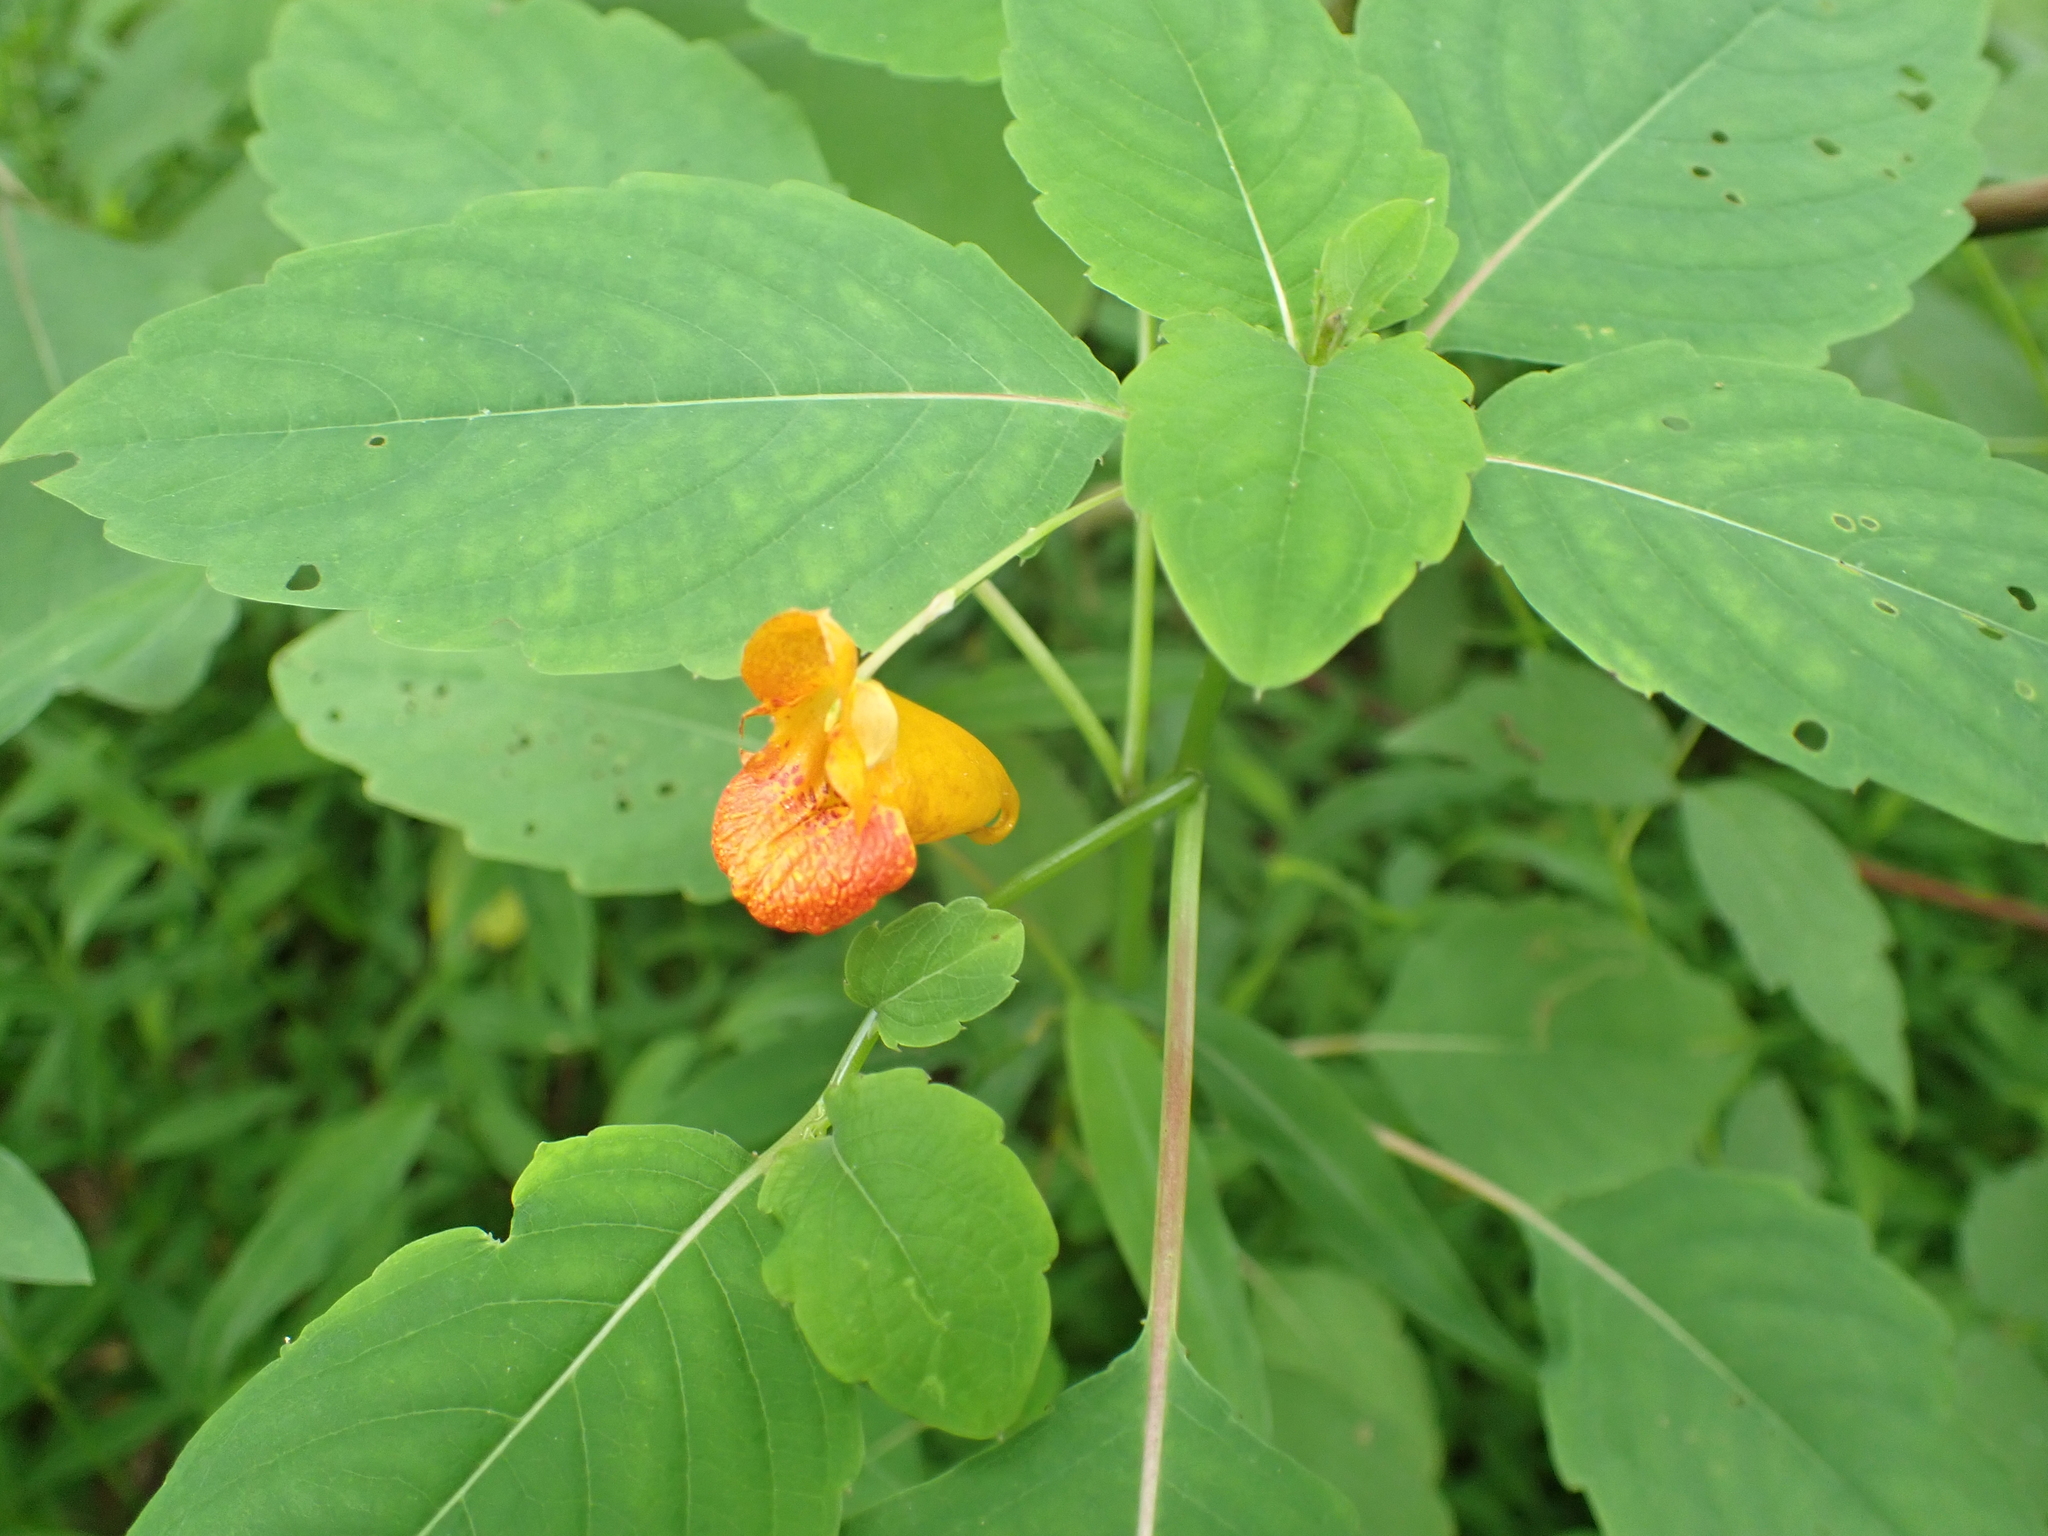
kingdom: Plantae
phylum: Tracheophyta
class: Magnoliopsida
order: Ericales
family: Balsaminaceae
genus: Impatiens
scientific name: Impatiens capensis
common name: Orange balsam
